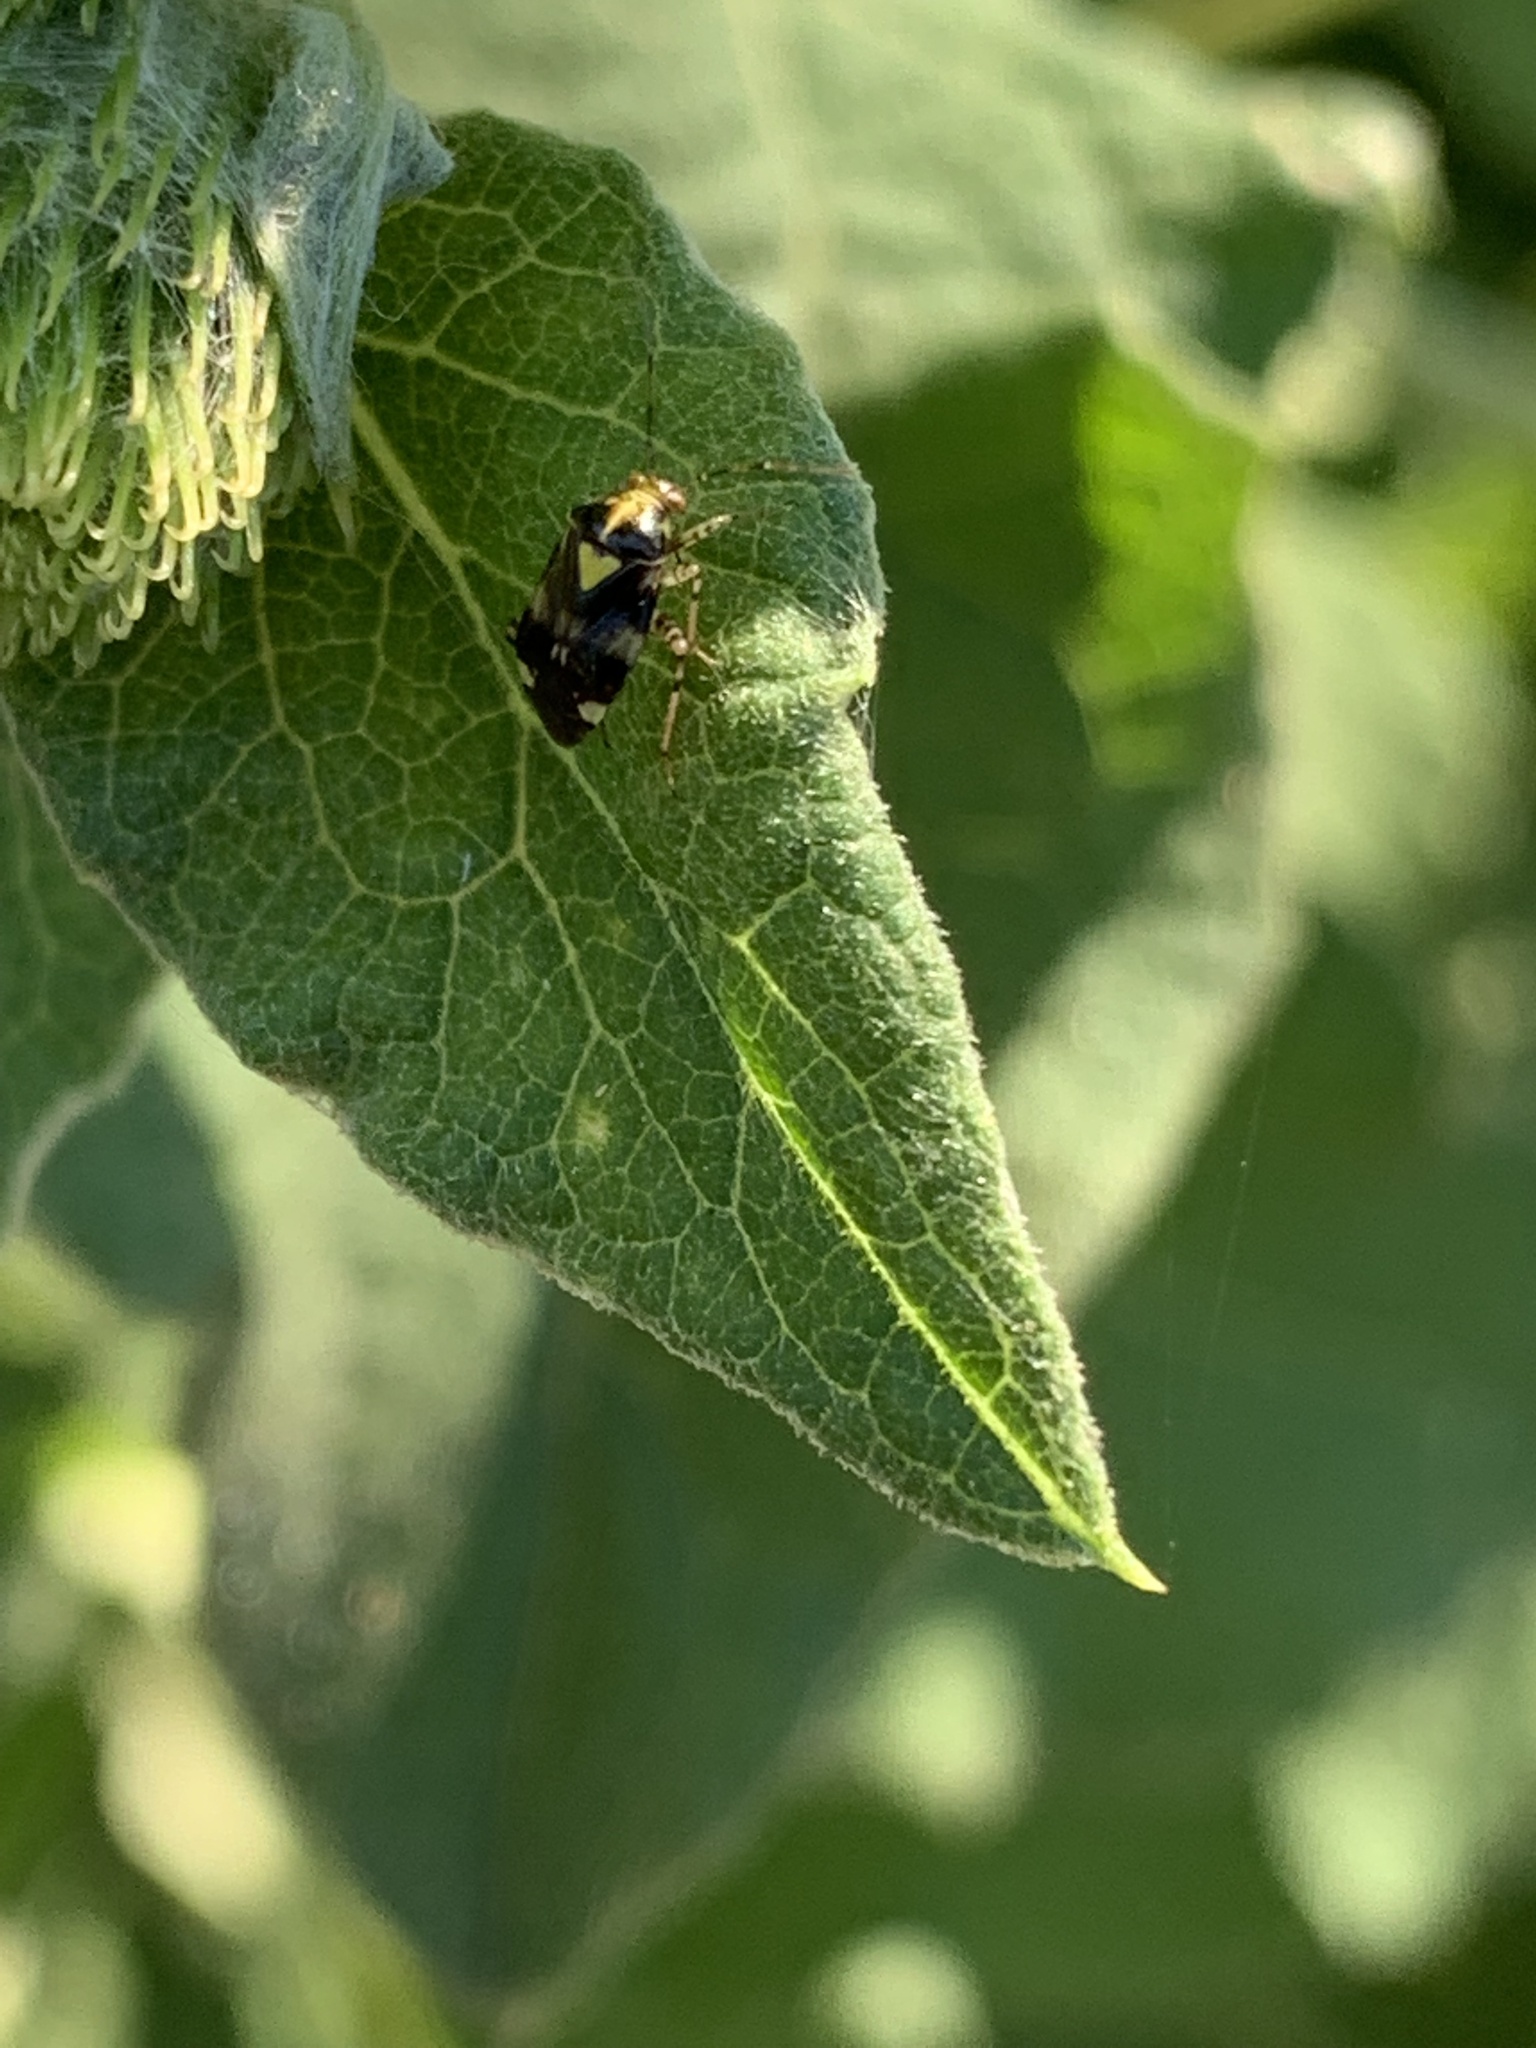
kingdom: Animalia
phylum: Arthropoda
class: Insecta
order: Hemiptera
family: Miridae
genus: Liocoris
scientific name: Liocoris tripustulatus
